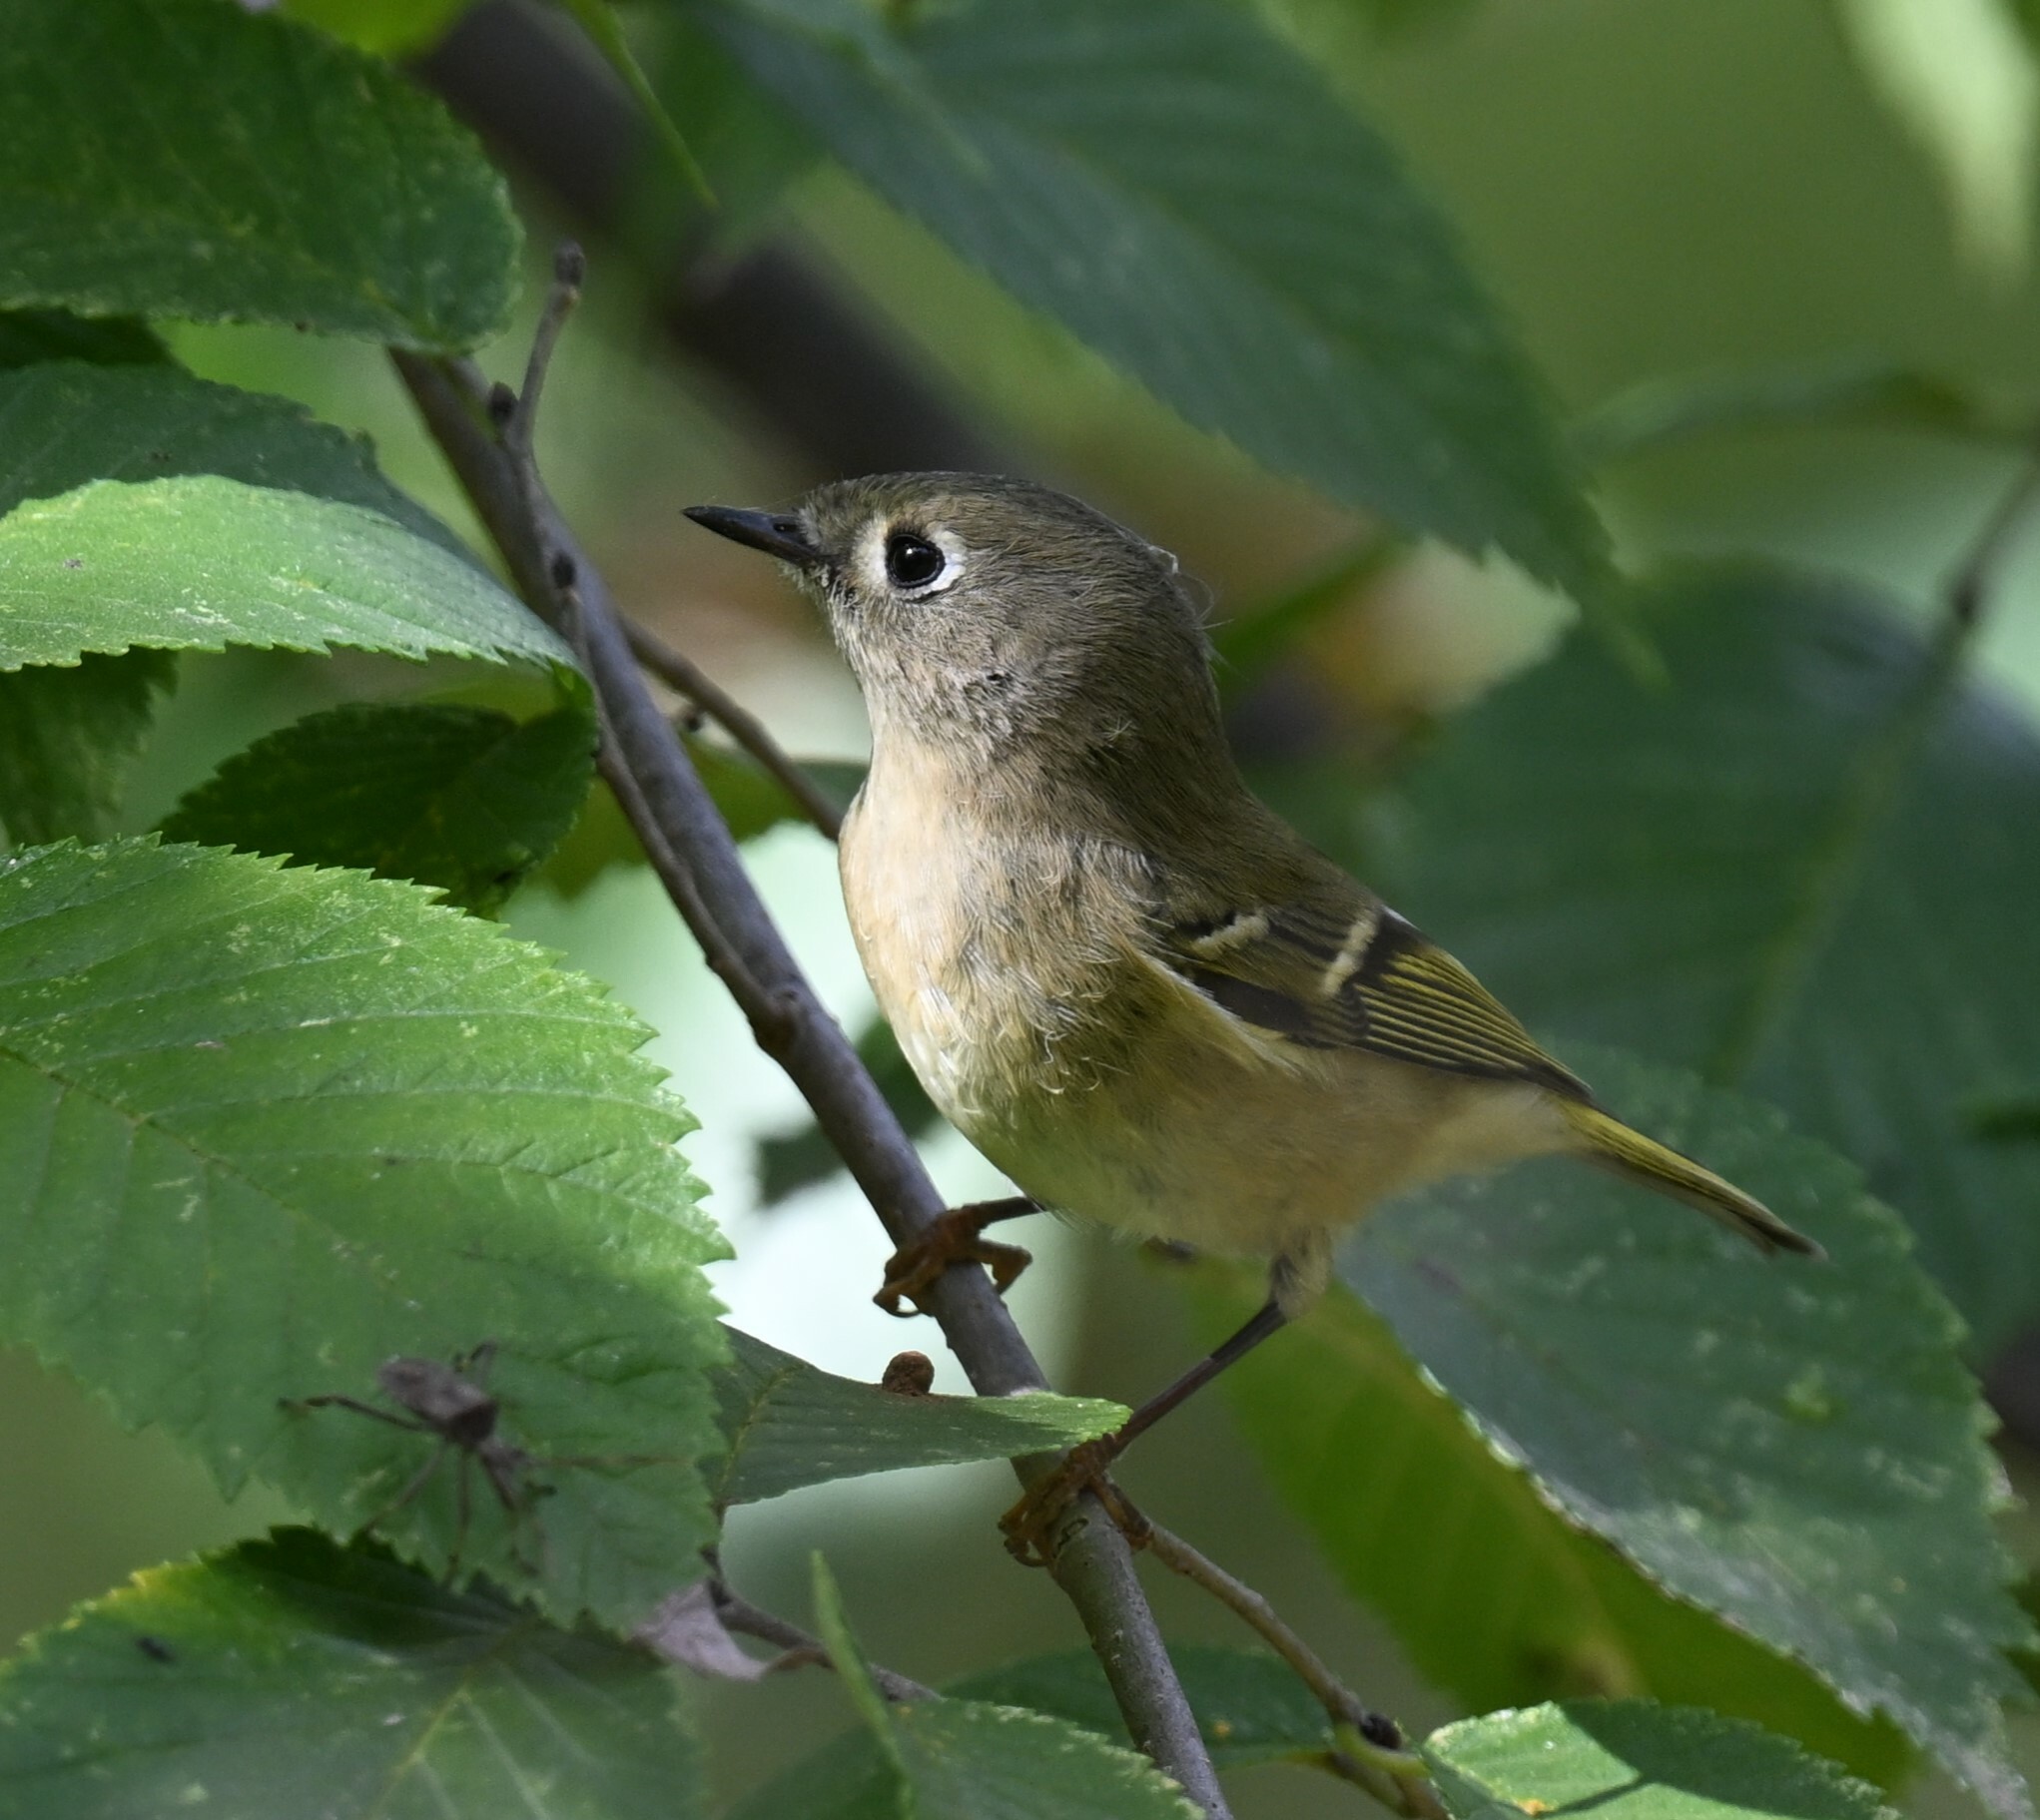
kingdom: Animalia
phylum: Chordata
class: Aves
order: Passeriformes
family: Regulidae
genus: Regulus
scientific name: Regulus calendula
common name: Ruby-crowned kinglet
